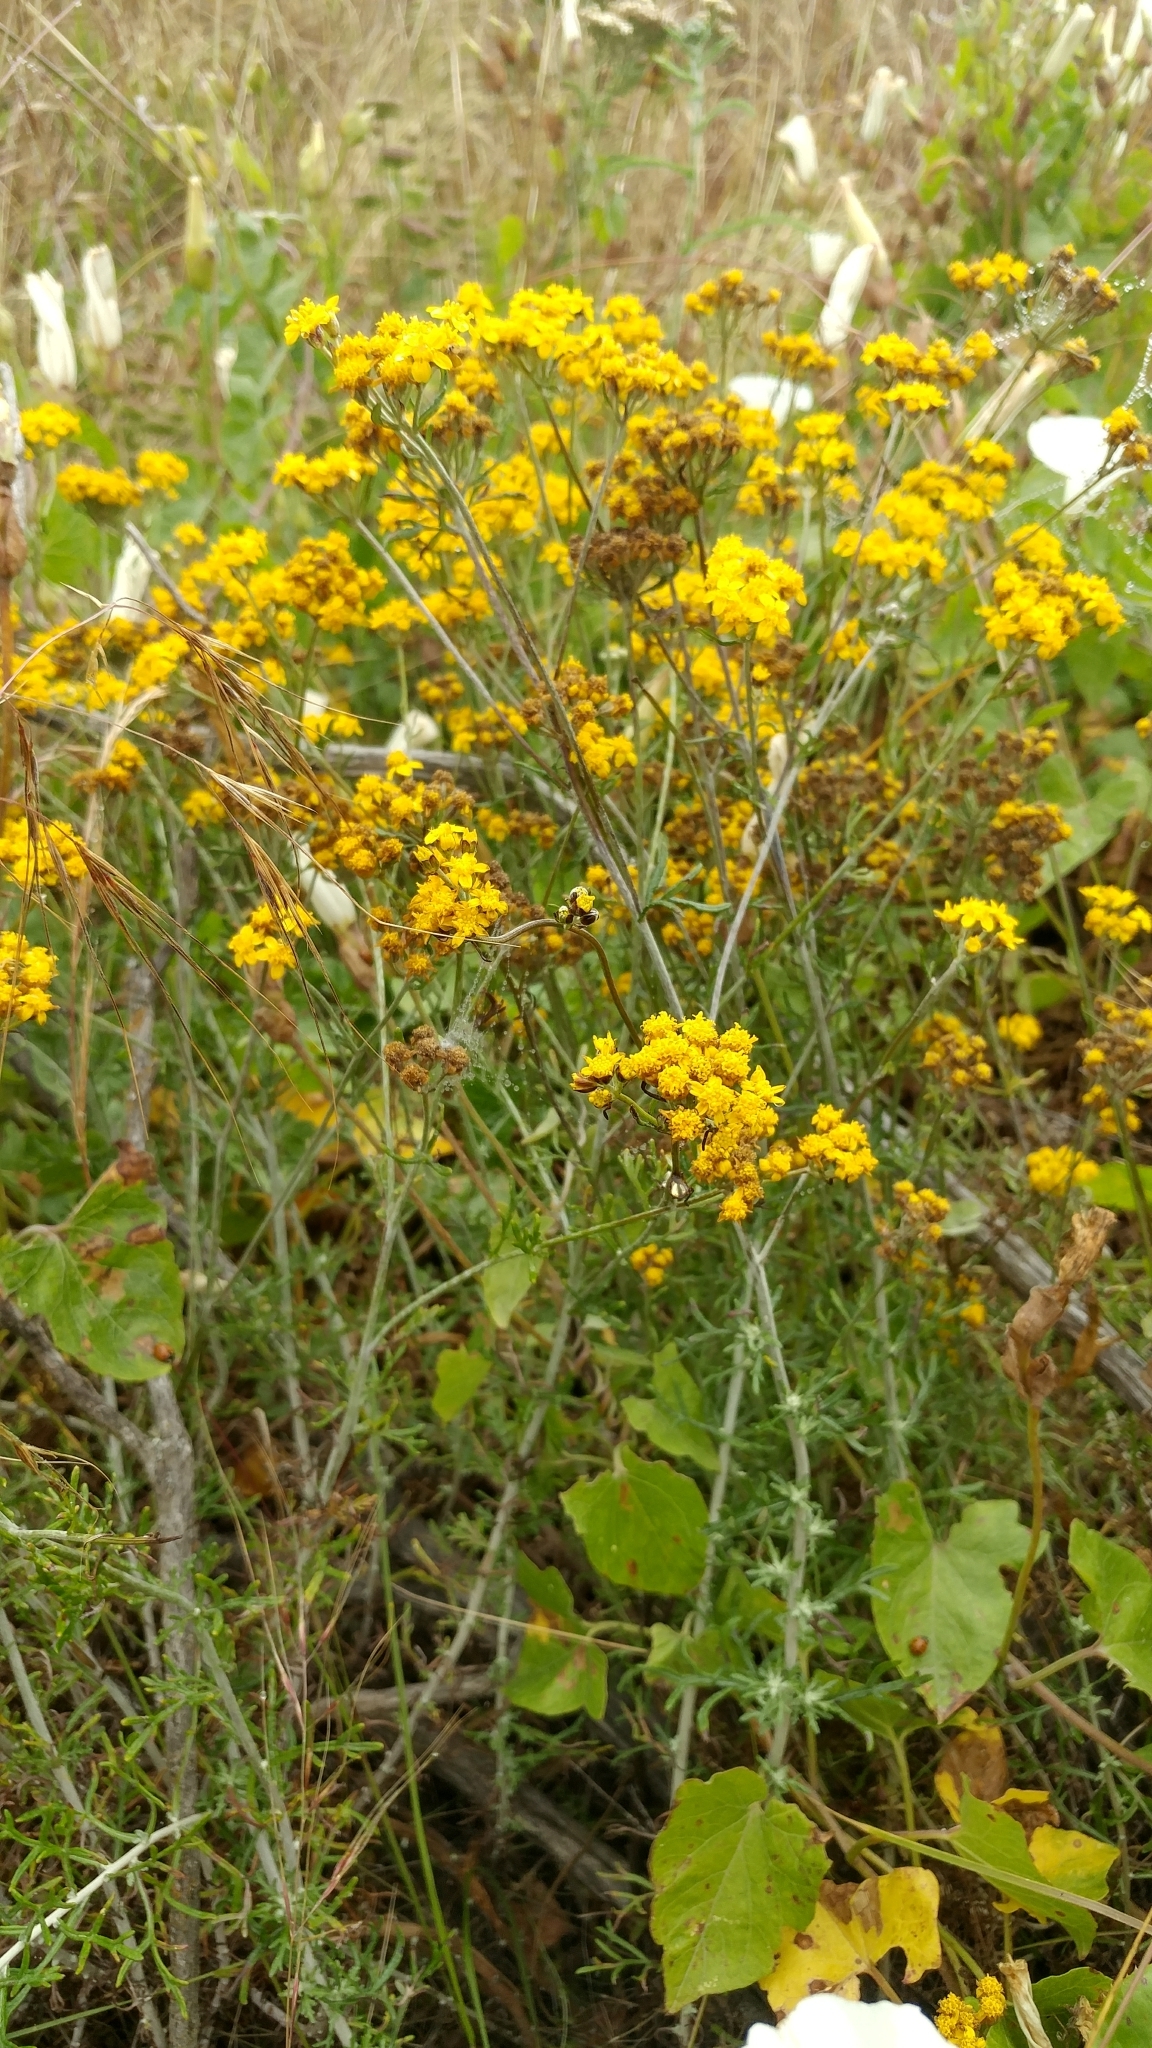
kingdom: Plantae
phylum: Tracheophyta
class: Magnoliopsida
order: Asterales
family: Asteraceae
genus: Eriophyllum
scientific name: Eriophyllum confertiflorum
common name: Golden-yarrow
